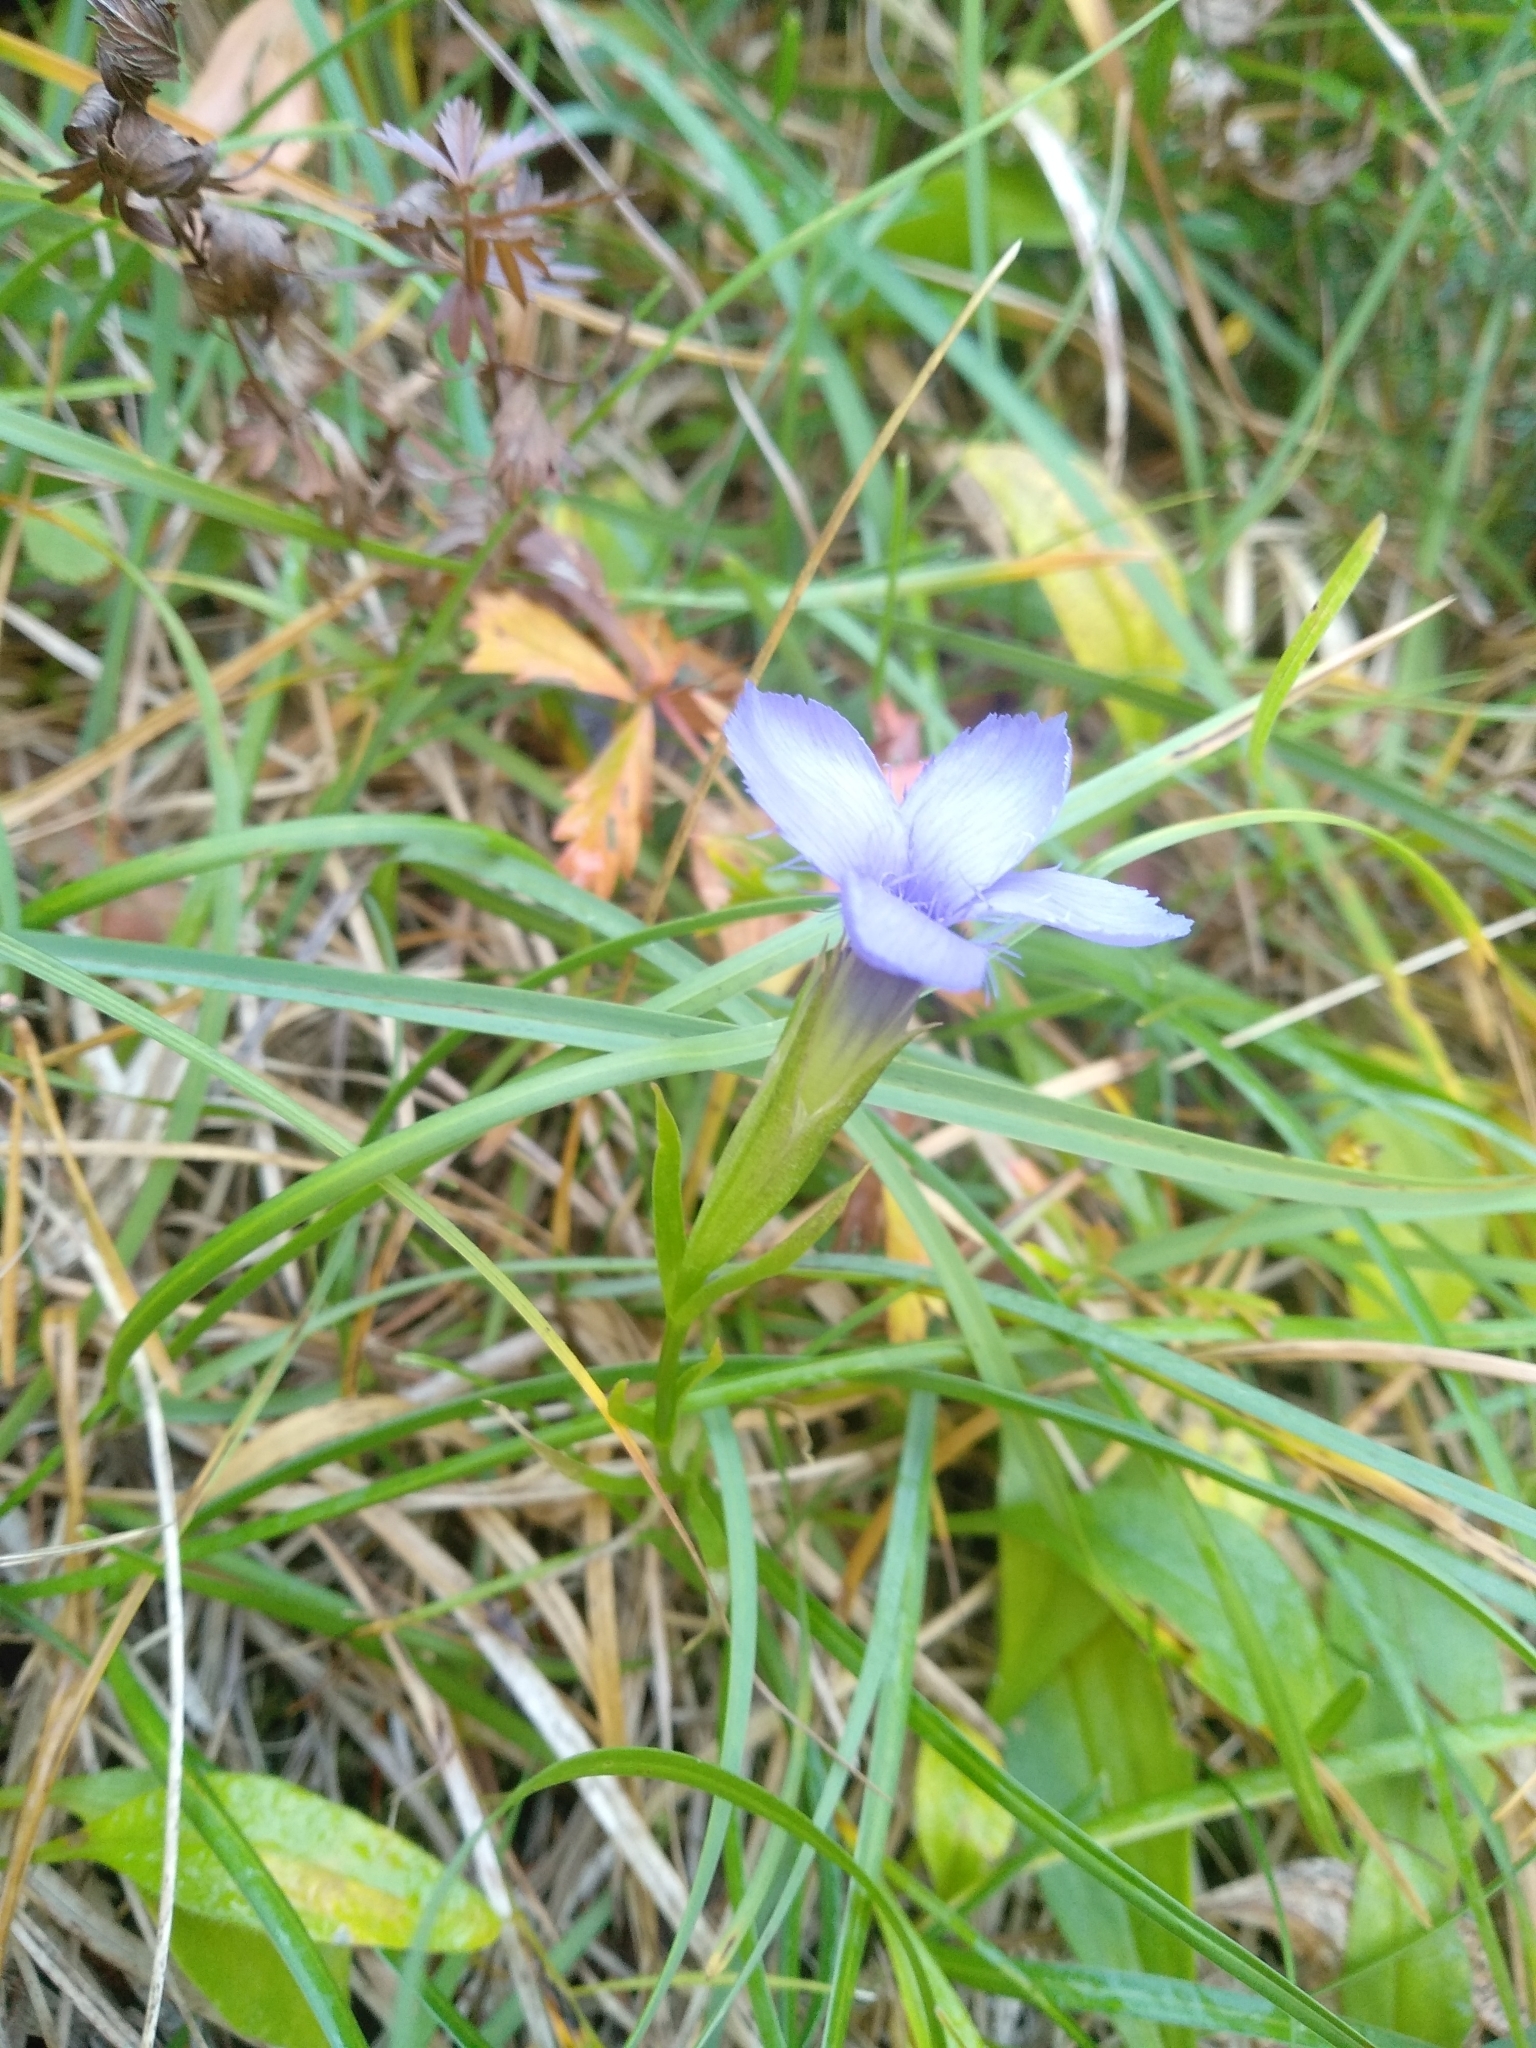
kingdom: Plantae
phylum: Tracheophyta
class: Magnoliopsida
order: Gentianales
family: Gentianaceae
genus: Gentianopsis
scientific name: Gentianopsis ciliata
